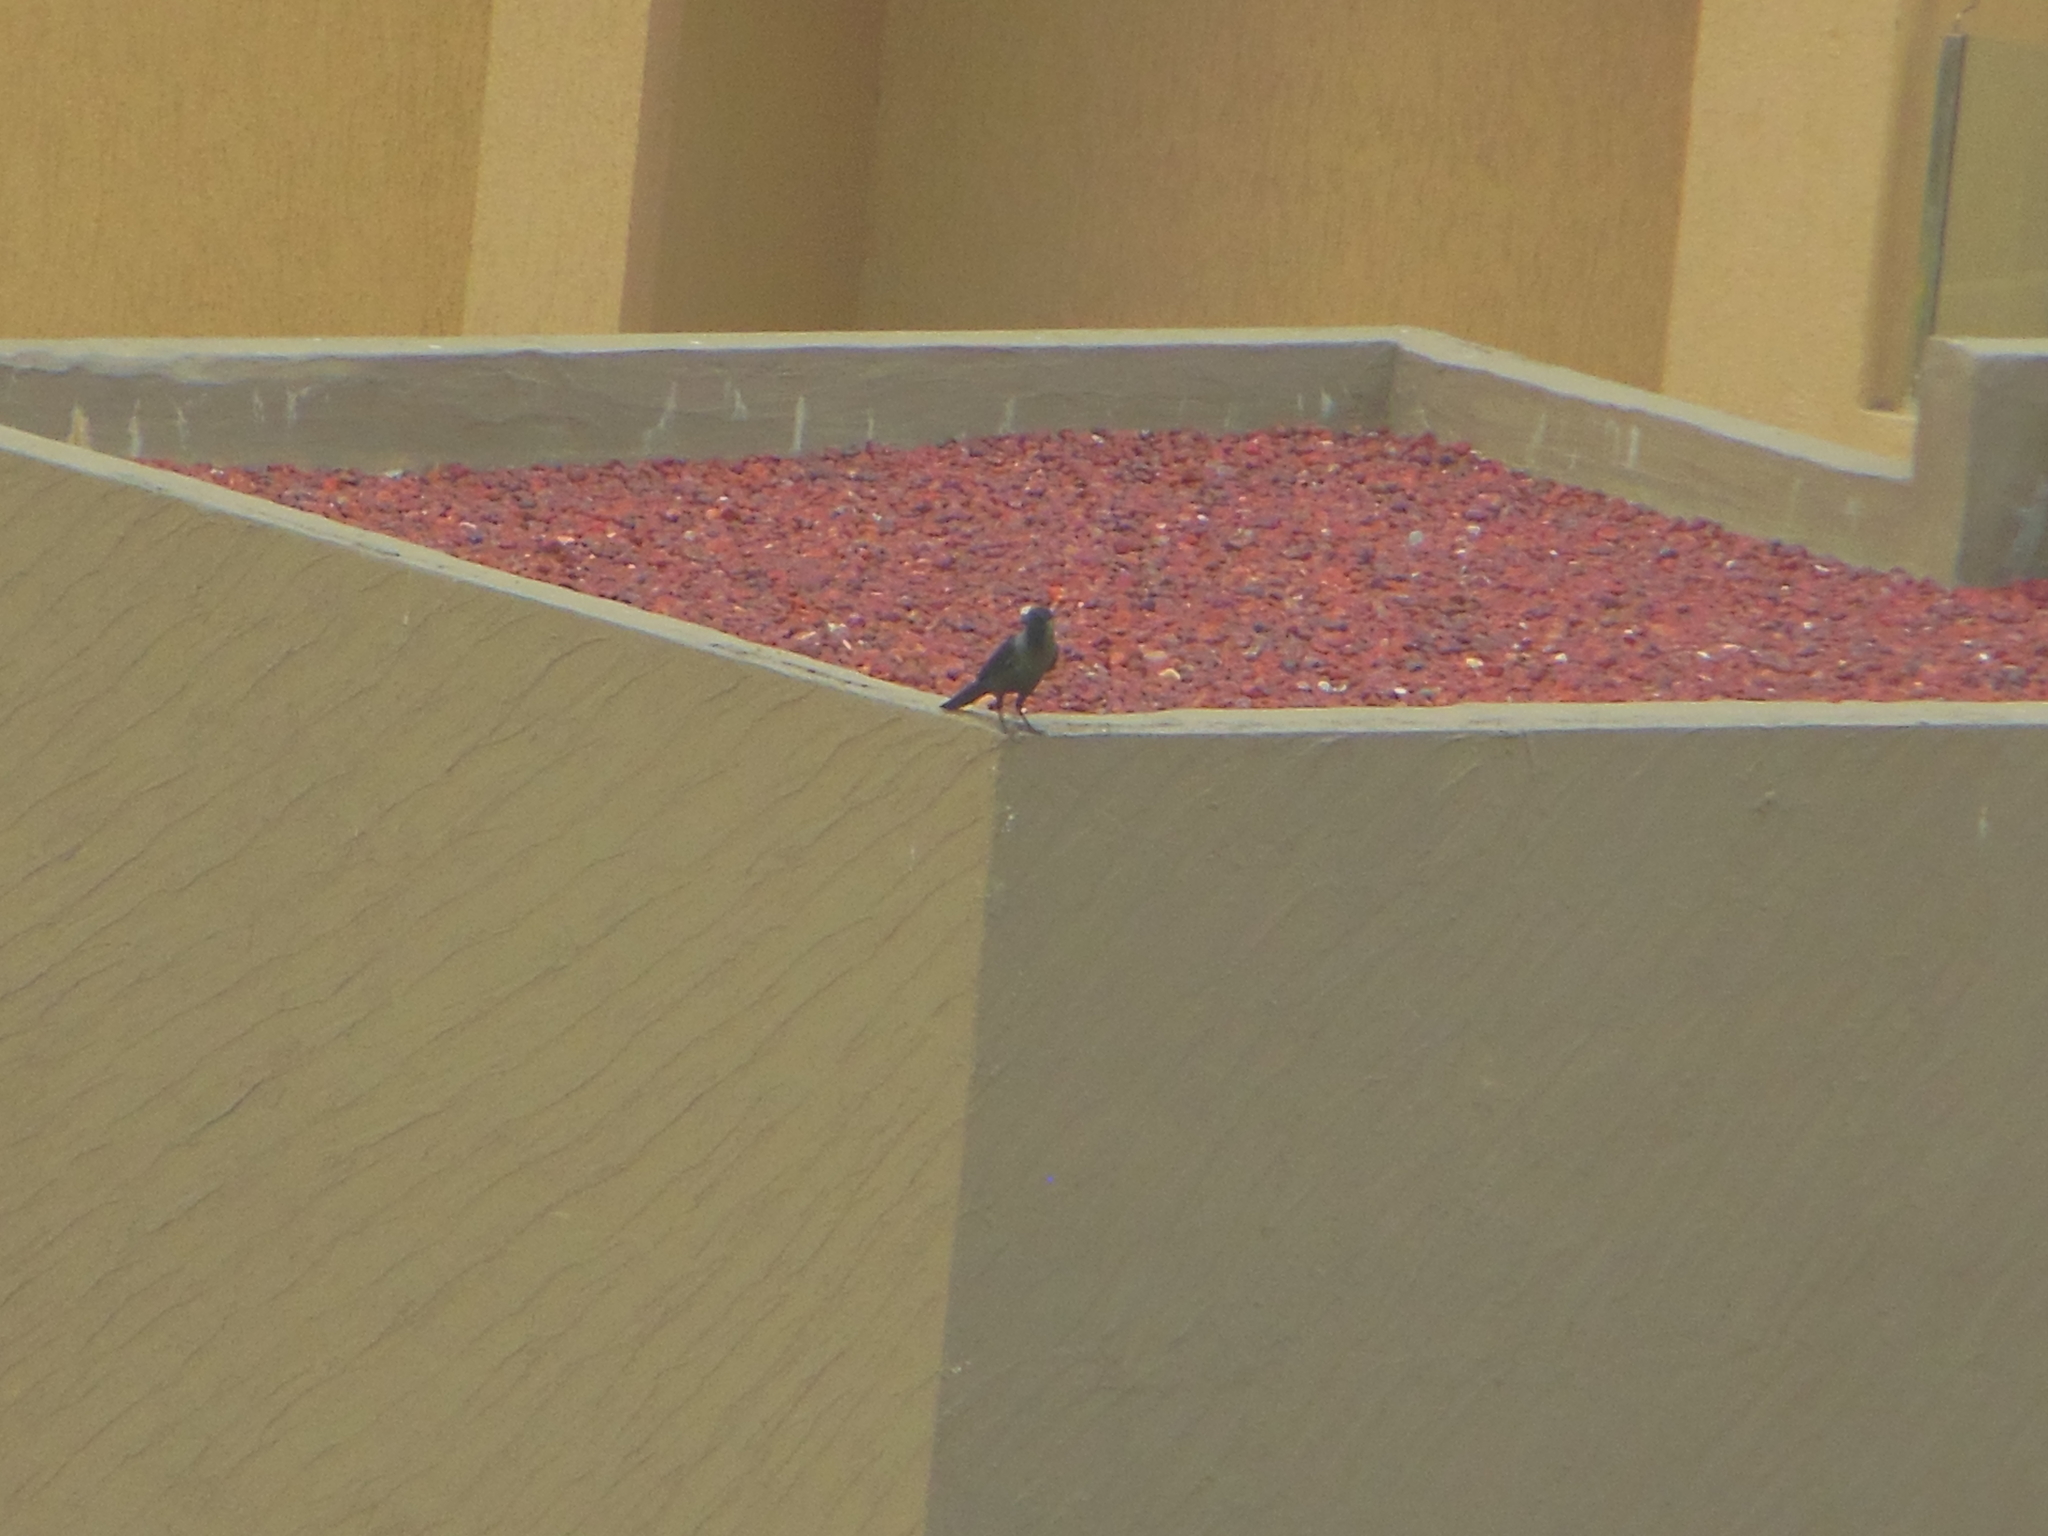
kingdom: Animalia
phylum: Chordata
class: Aves
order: Passeriformes
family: Corvidae
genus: Corvus
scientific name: Corvus splendens
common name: House crow
